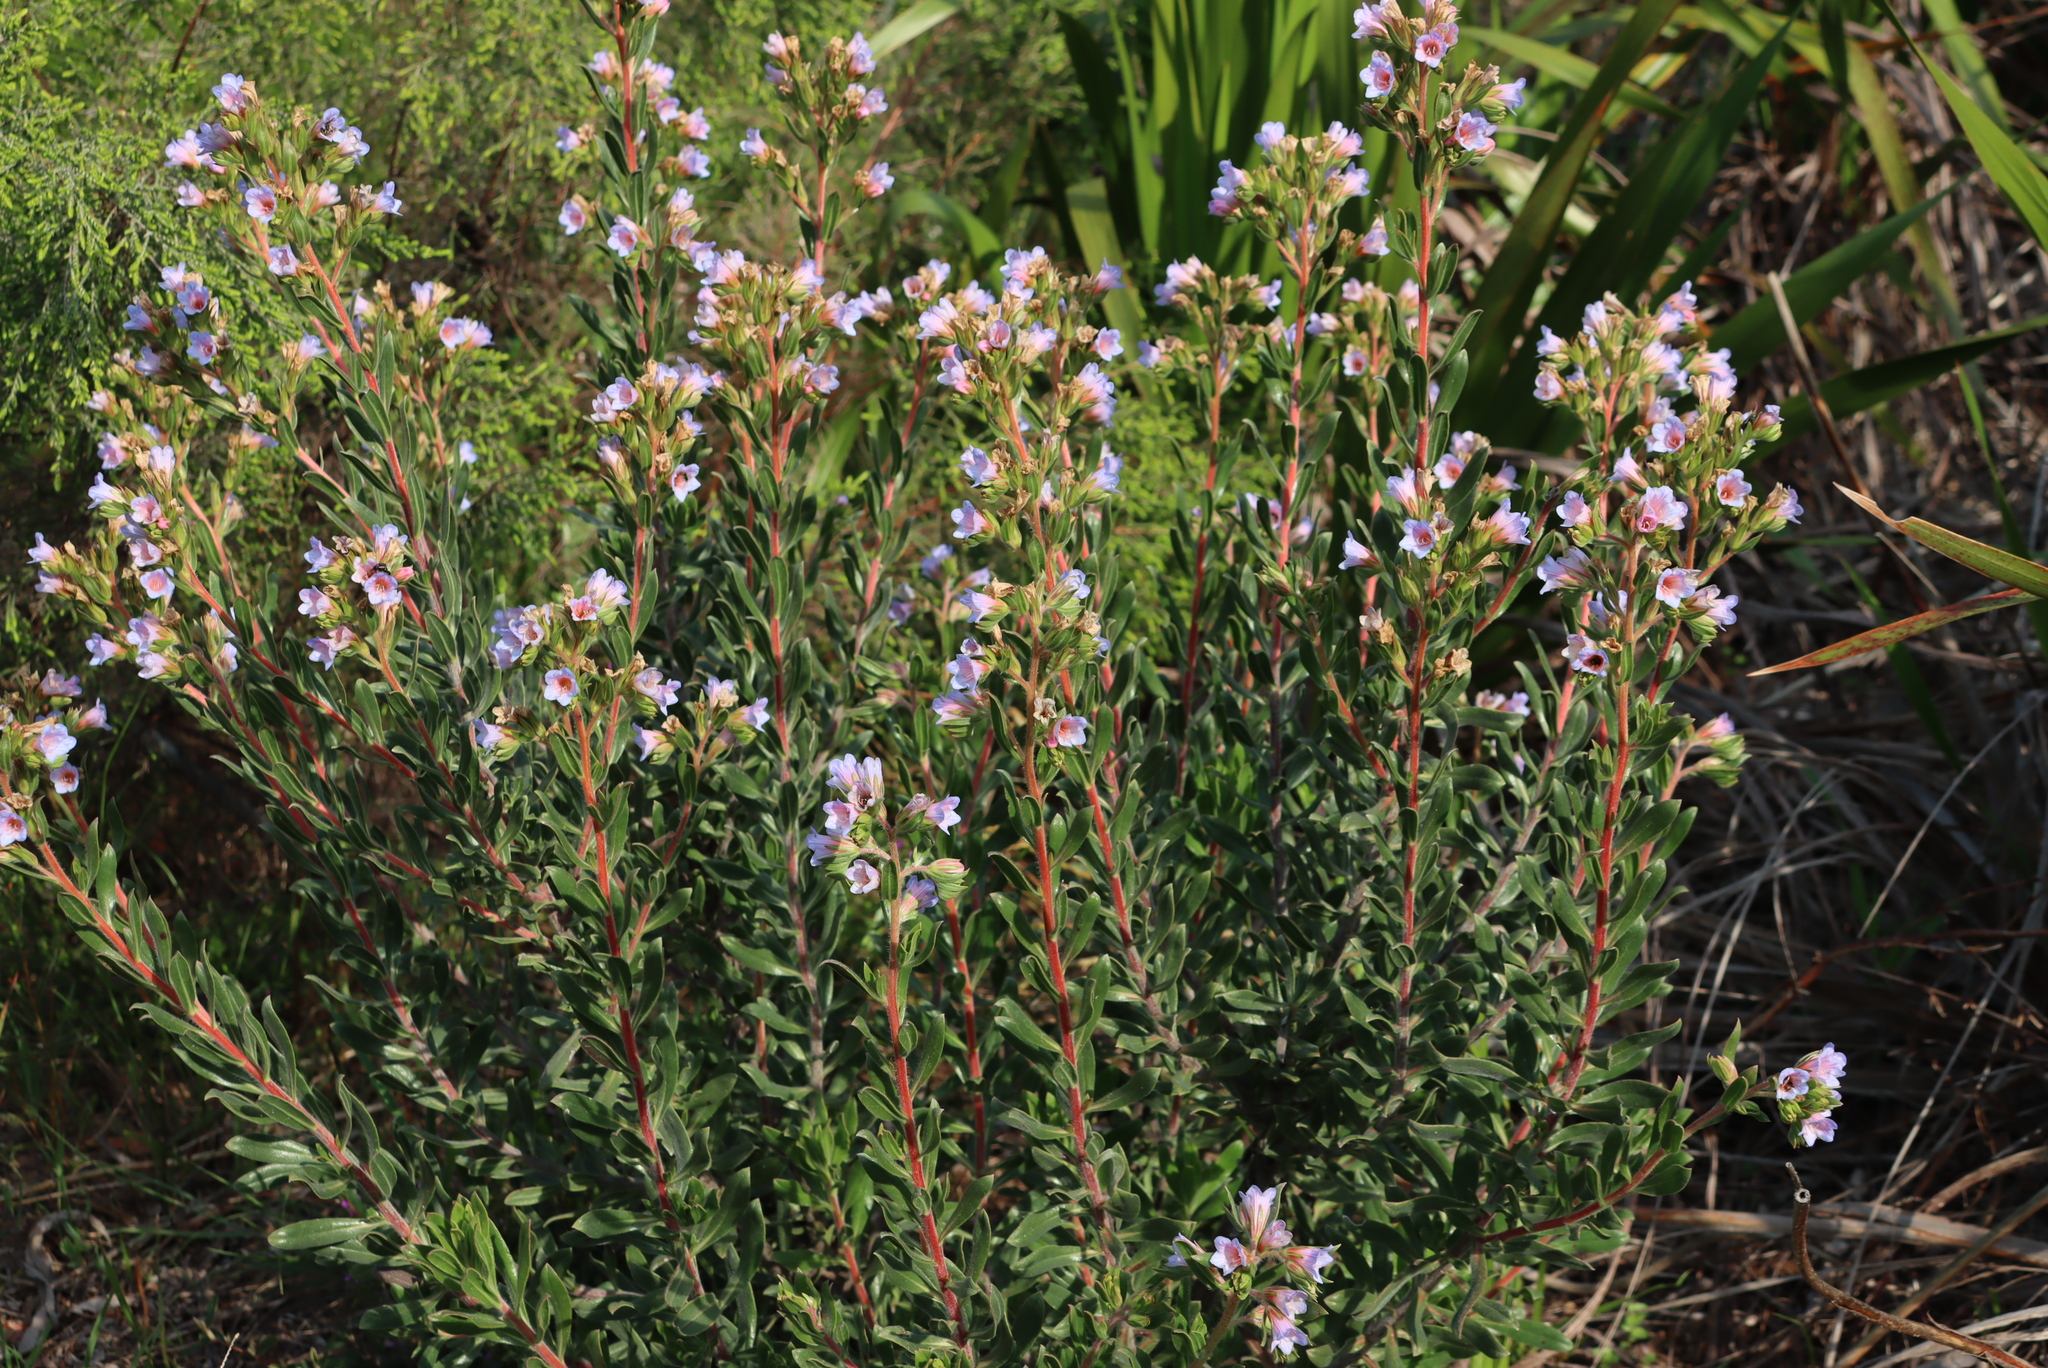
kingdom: Plantae
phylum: Tracheophyta
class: Magnoliopsida
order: Boraginales
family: Boraginaceae
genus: Lobostemon
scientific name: Lobostemon fruticosus
